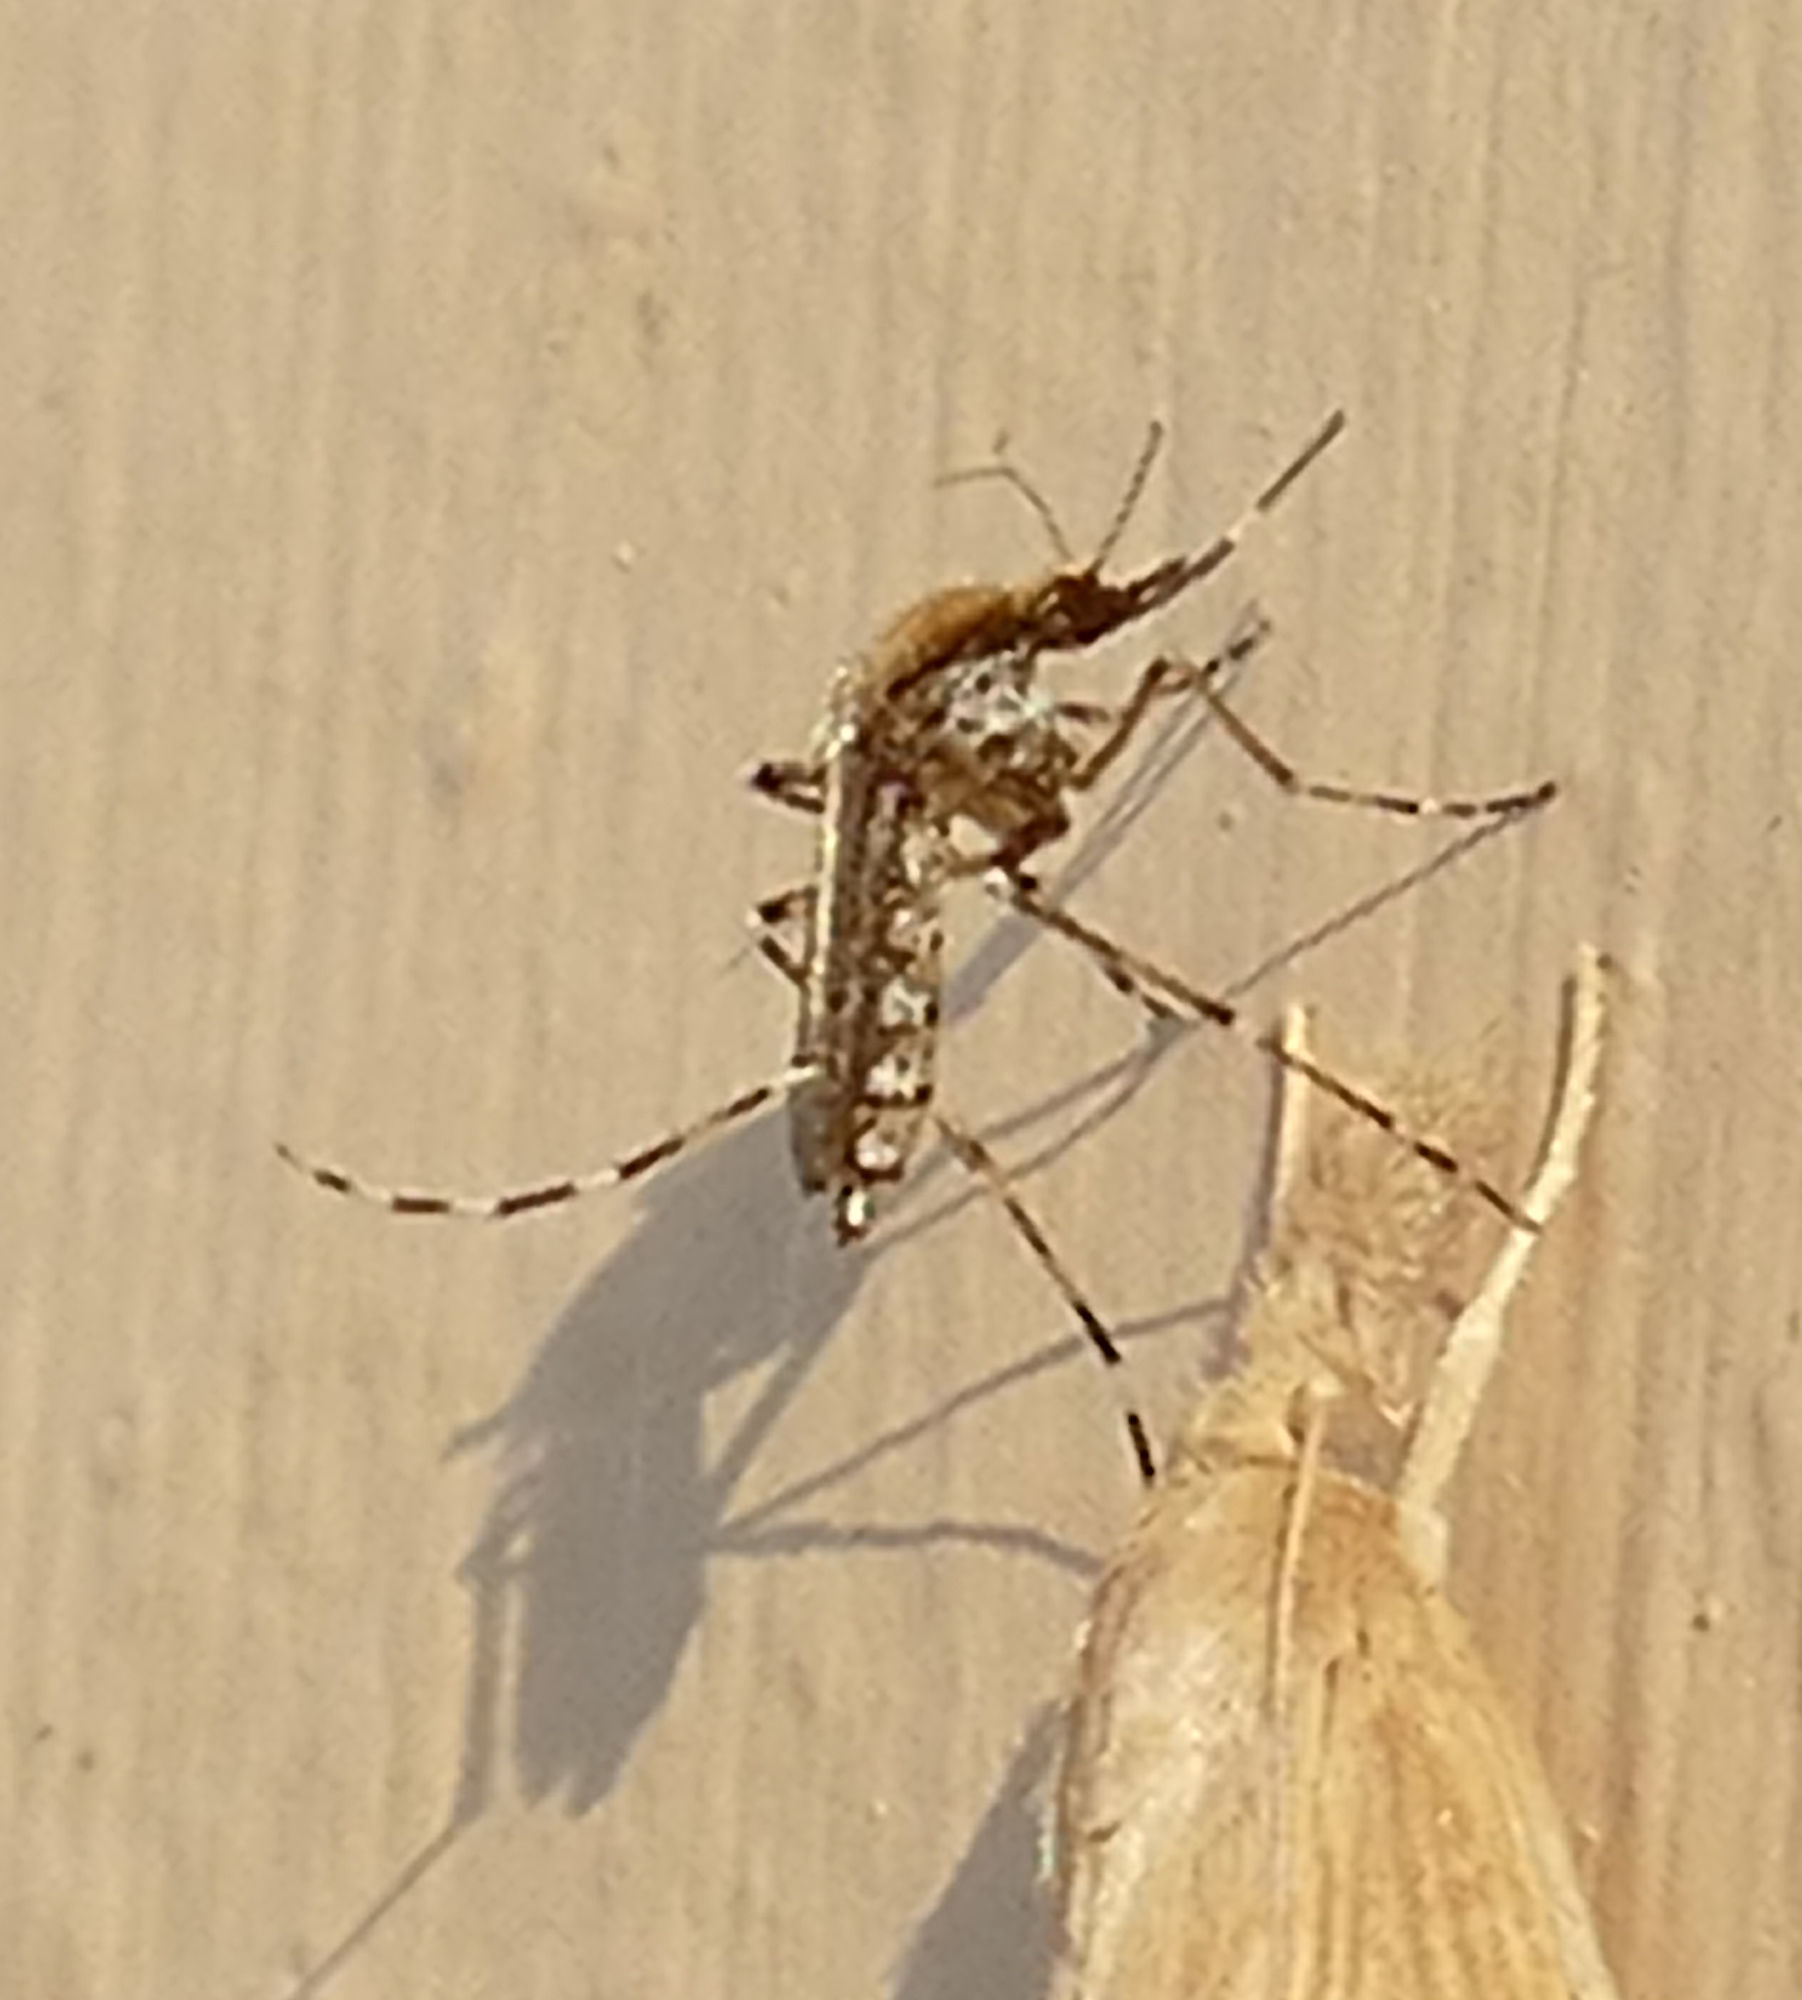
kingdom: Animalia
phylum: Arthropoda
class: Insecta
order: Diptera
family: Culicidae
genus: Aedes
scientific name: Aedes sollicitans
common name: Saltmarsh mosquito
